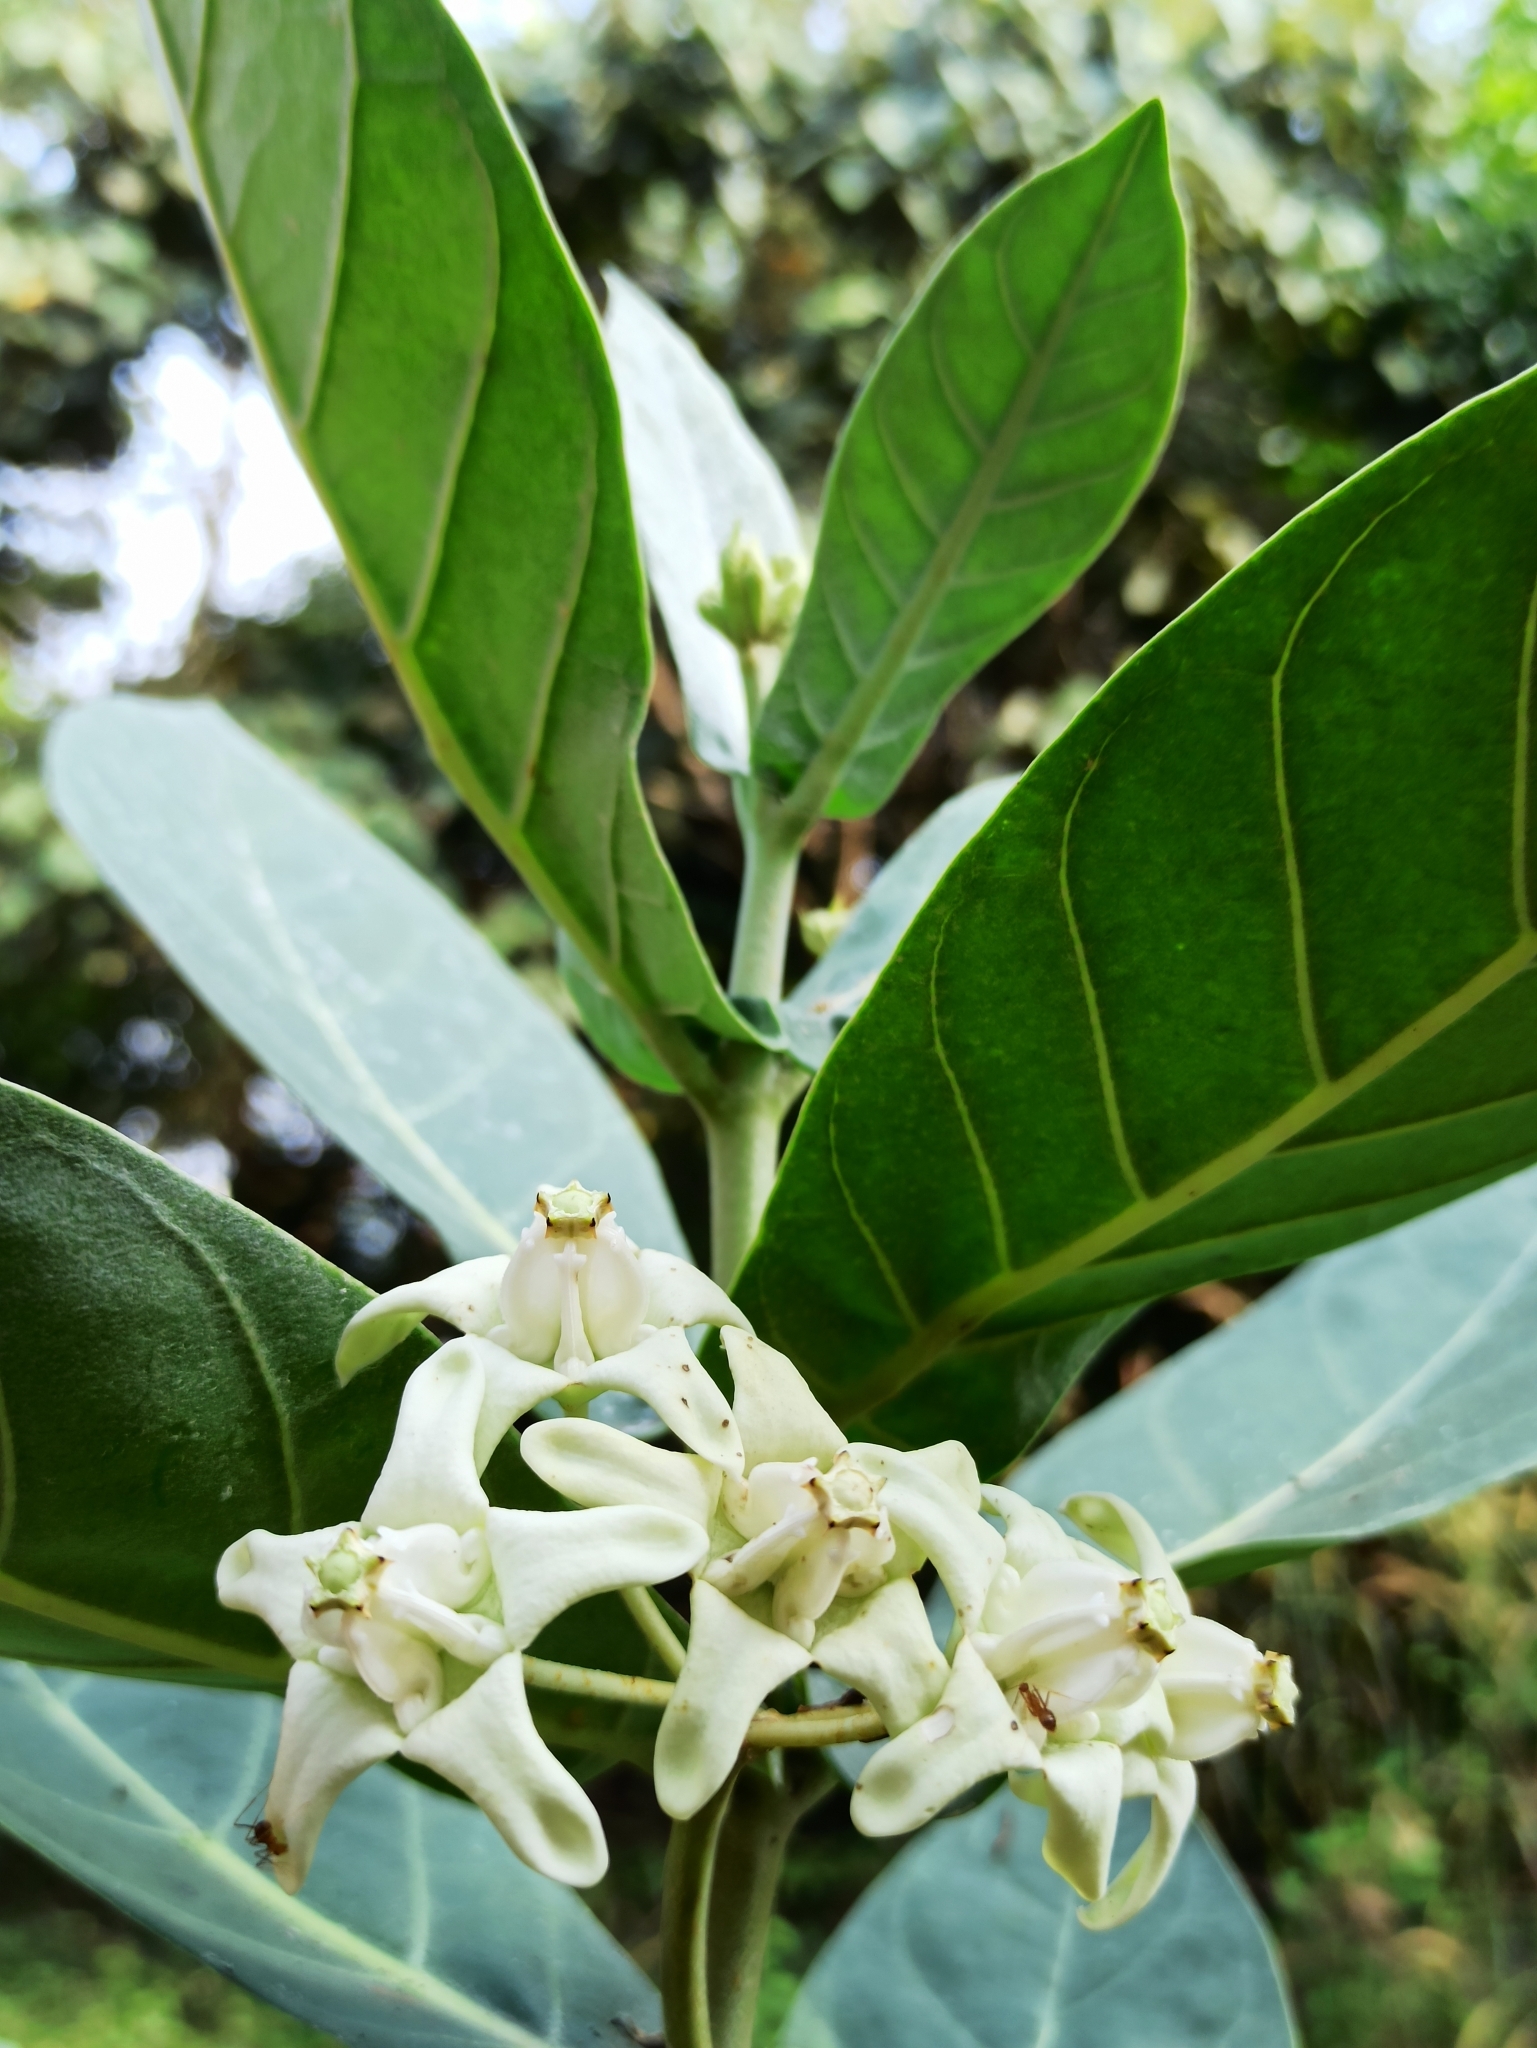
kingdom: Plantae
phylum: Tracheophyta
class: Magnoliopsida
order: Gentianales
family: Apocynaceae
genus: Calotropis
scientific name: Calotropis gigantea
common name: Crown flower
